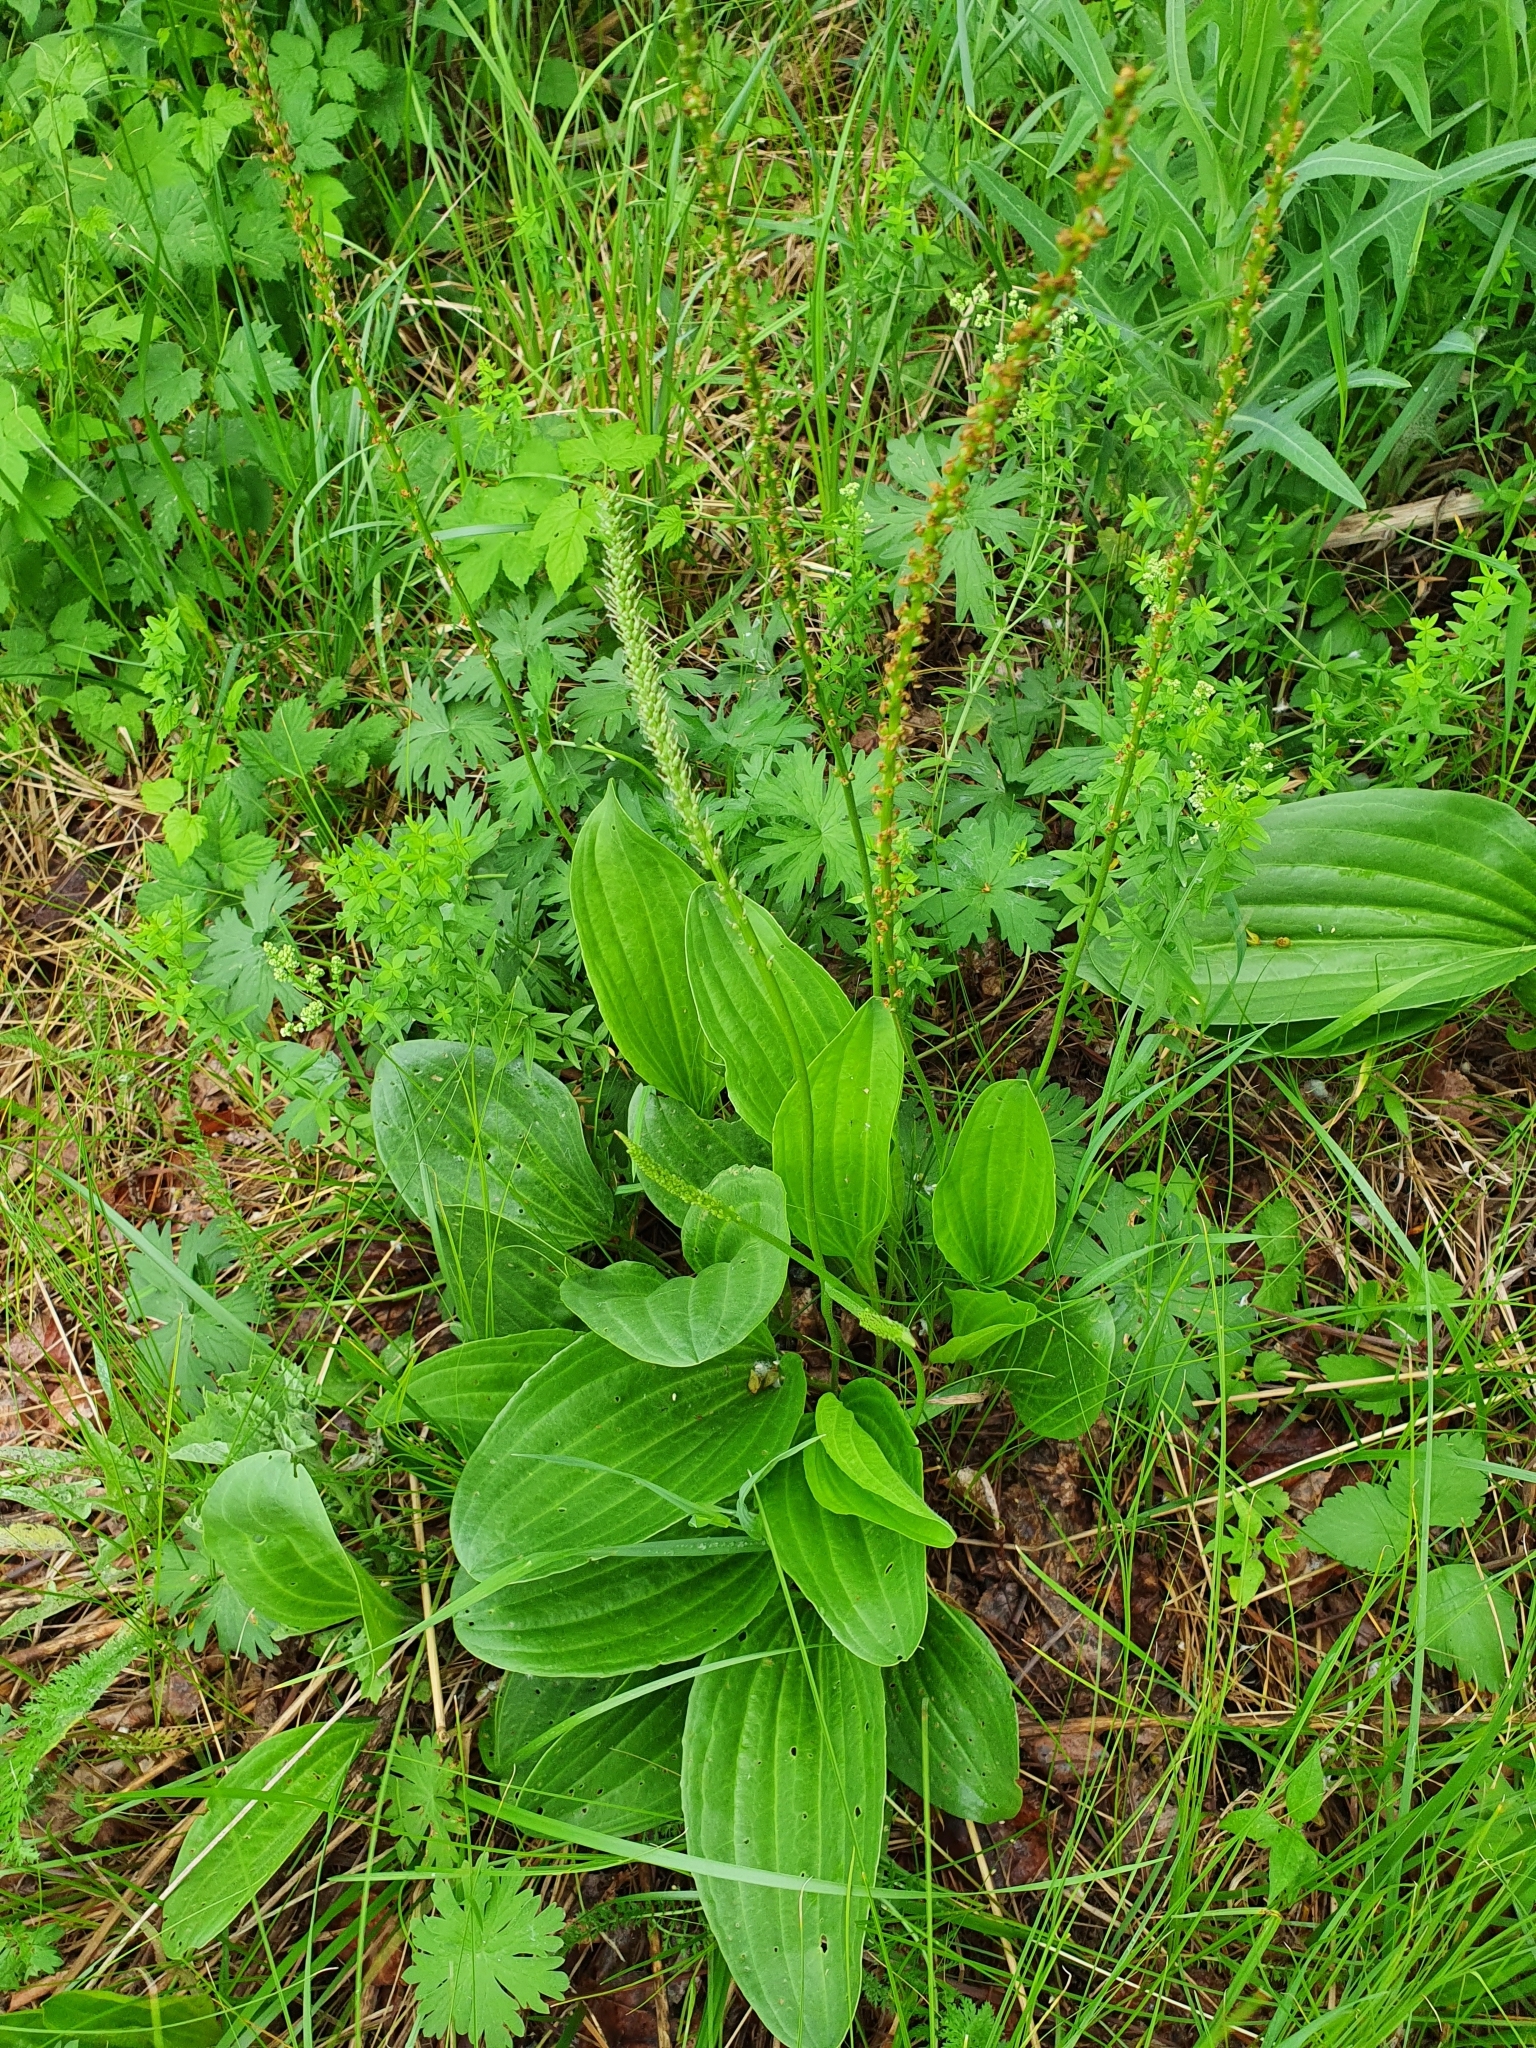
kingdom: Plantae
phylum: Tracheophyta
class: Magnoliopsida
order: Lamiales
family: Plantaginaceae
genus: Plantago
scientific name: Plantago cornuti
